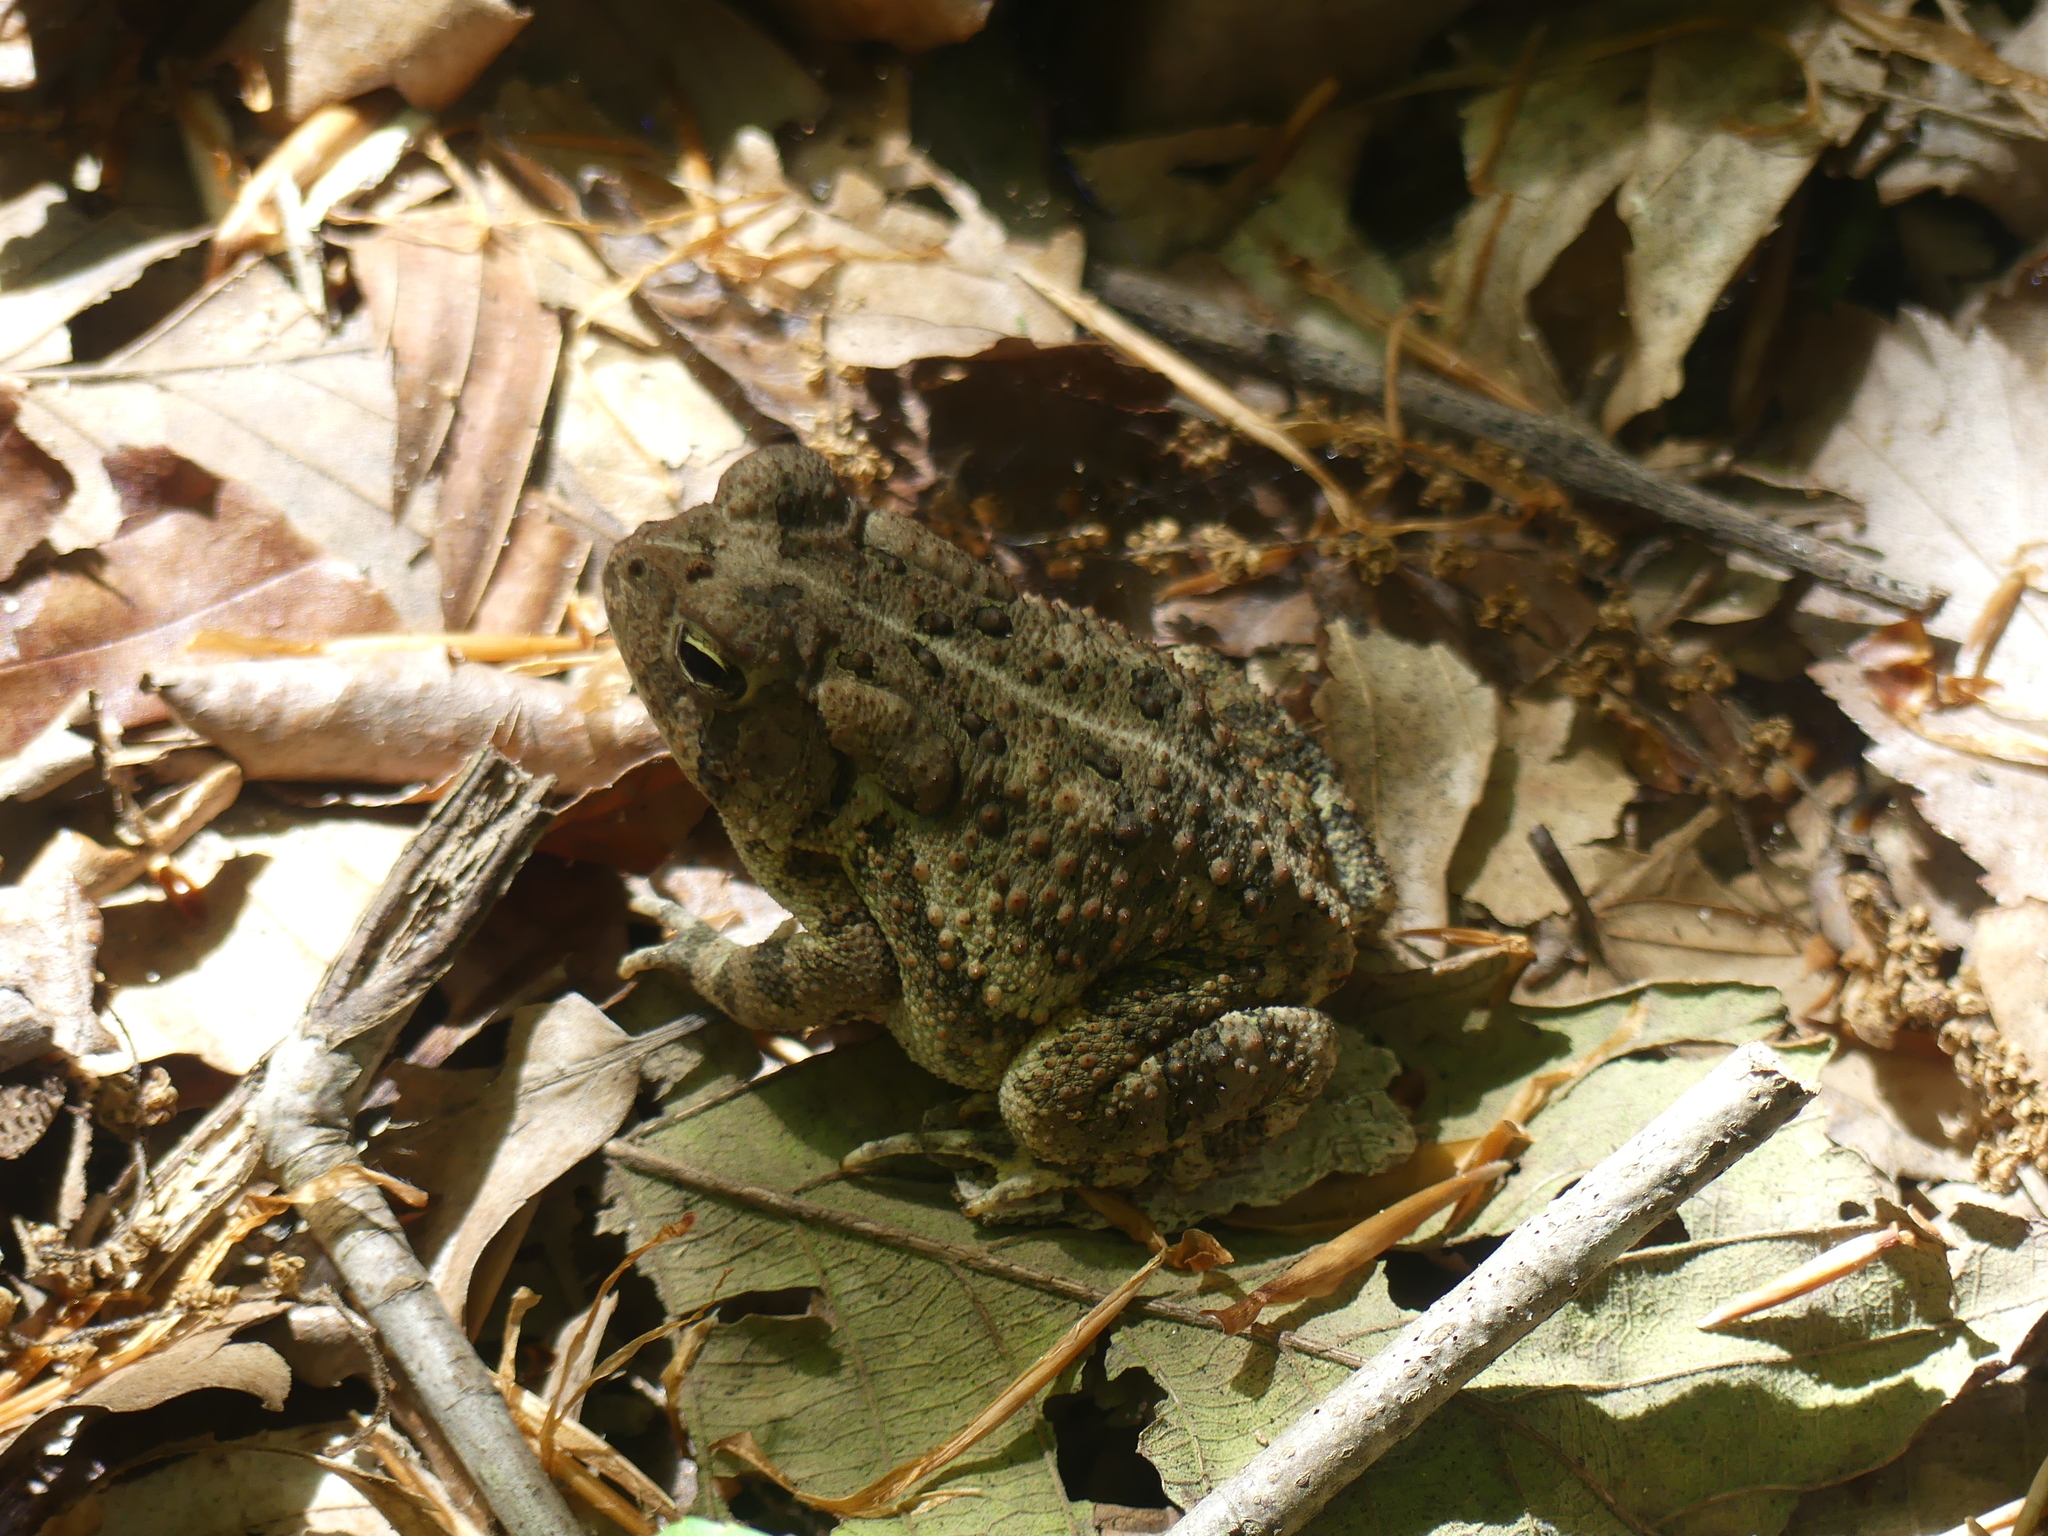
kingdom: Animalia
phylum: Chordata
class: Amphibia
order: Anura
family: Bufonidae
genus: Anaxyrus
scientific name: Anaxyrus fowleri
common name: Fowler's toad
